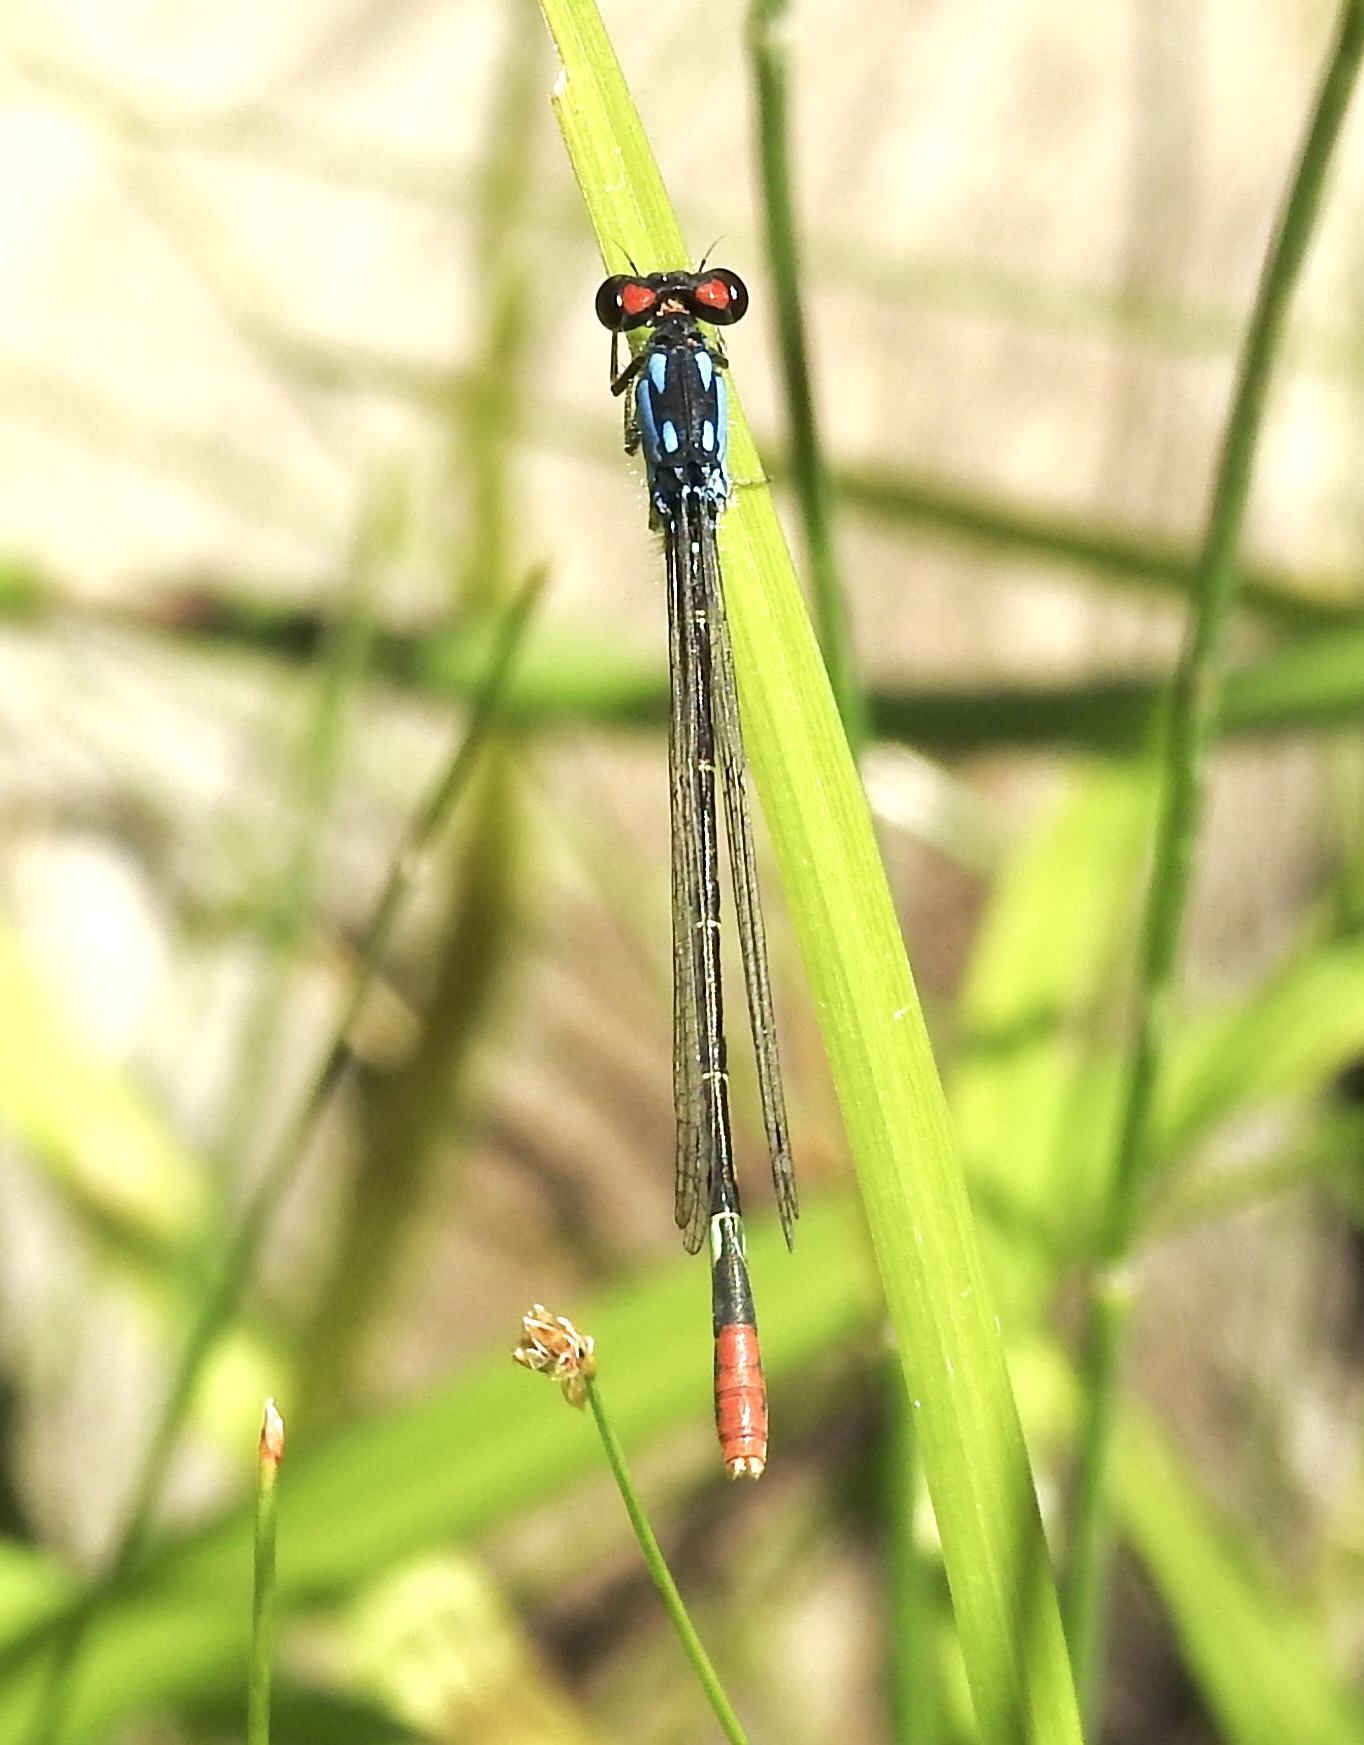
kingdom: Animalia
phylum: Arthropoda
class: Insecta
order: Odonata
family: Coenagrionidae
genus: Hesperagrion
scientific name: Hesperagrion heterodoxum
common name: Painted damsel
